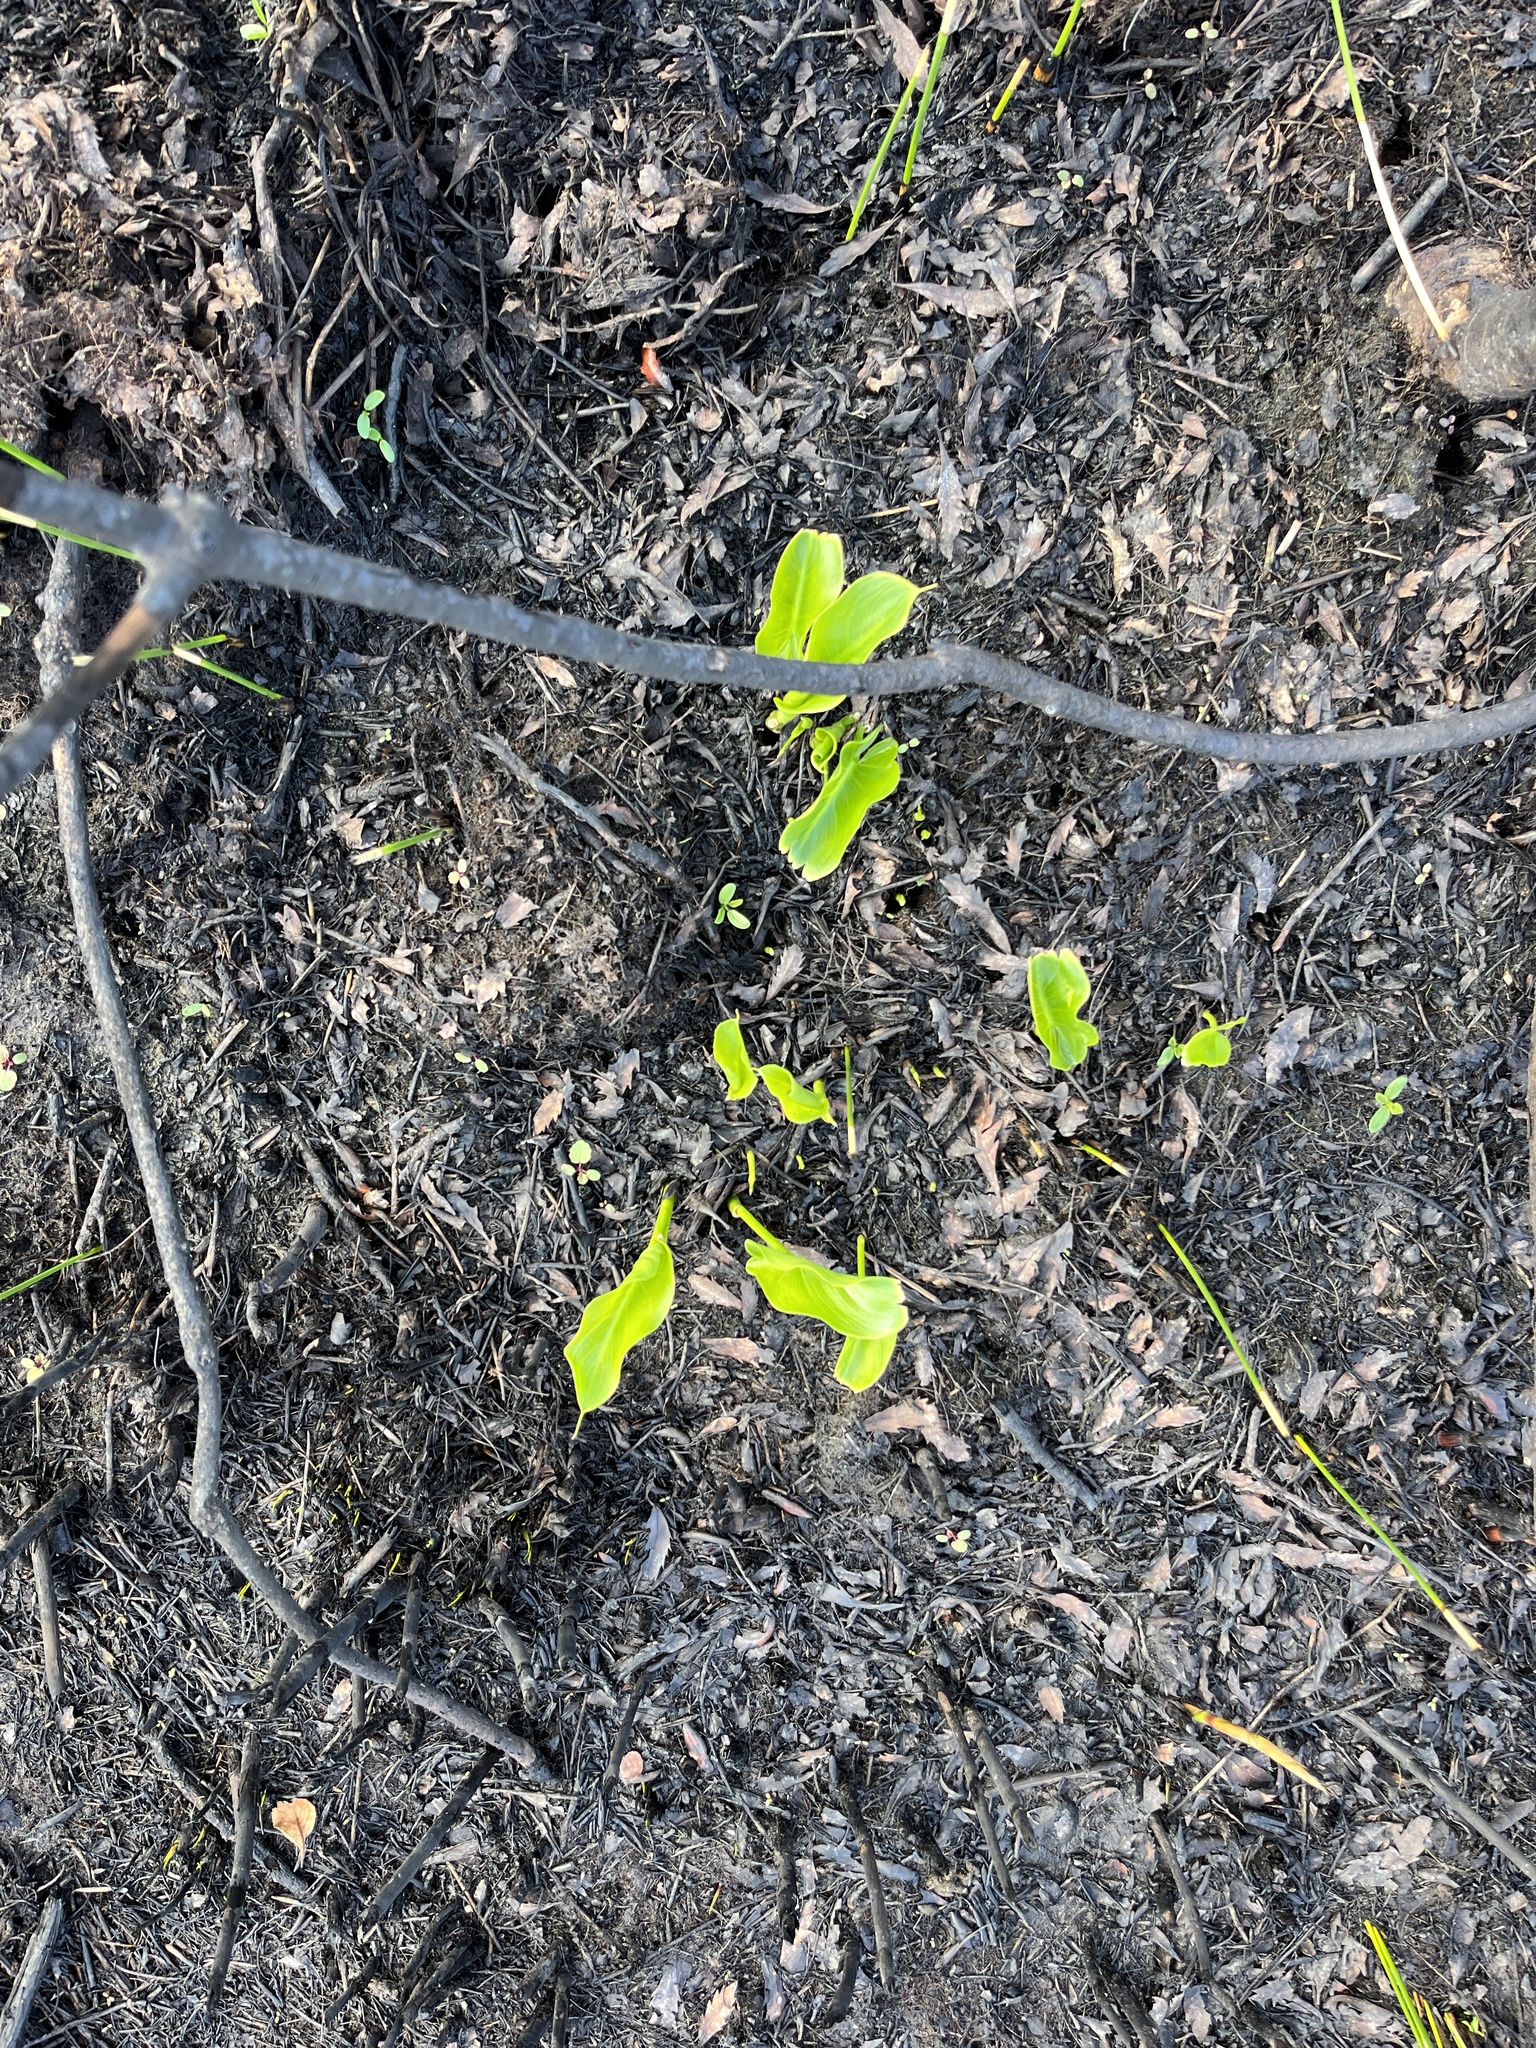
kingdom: Plantae
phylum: Tracheophyta
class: Liliopsida
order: Alismatales
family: Araceae
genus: Zantedeschia
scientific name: Zantedeschia aethiopica
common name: Altar-lily
